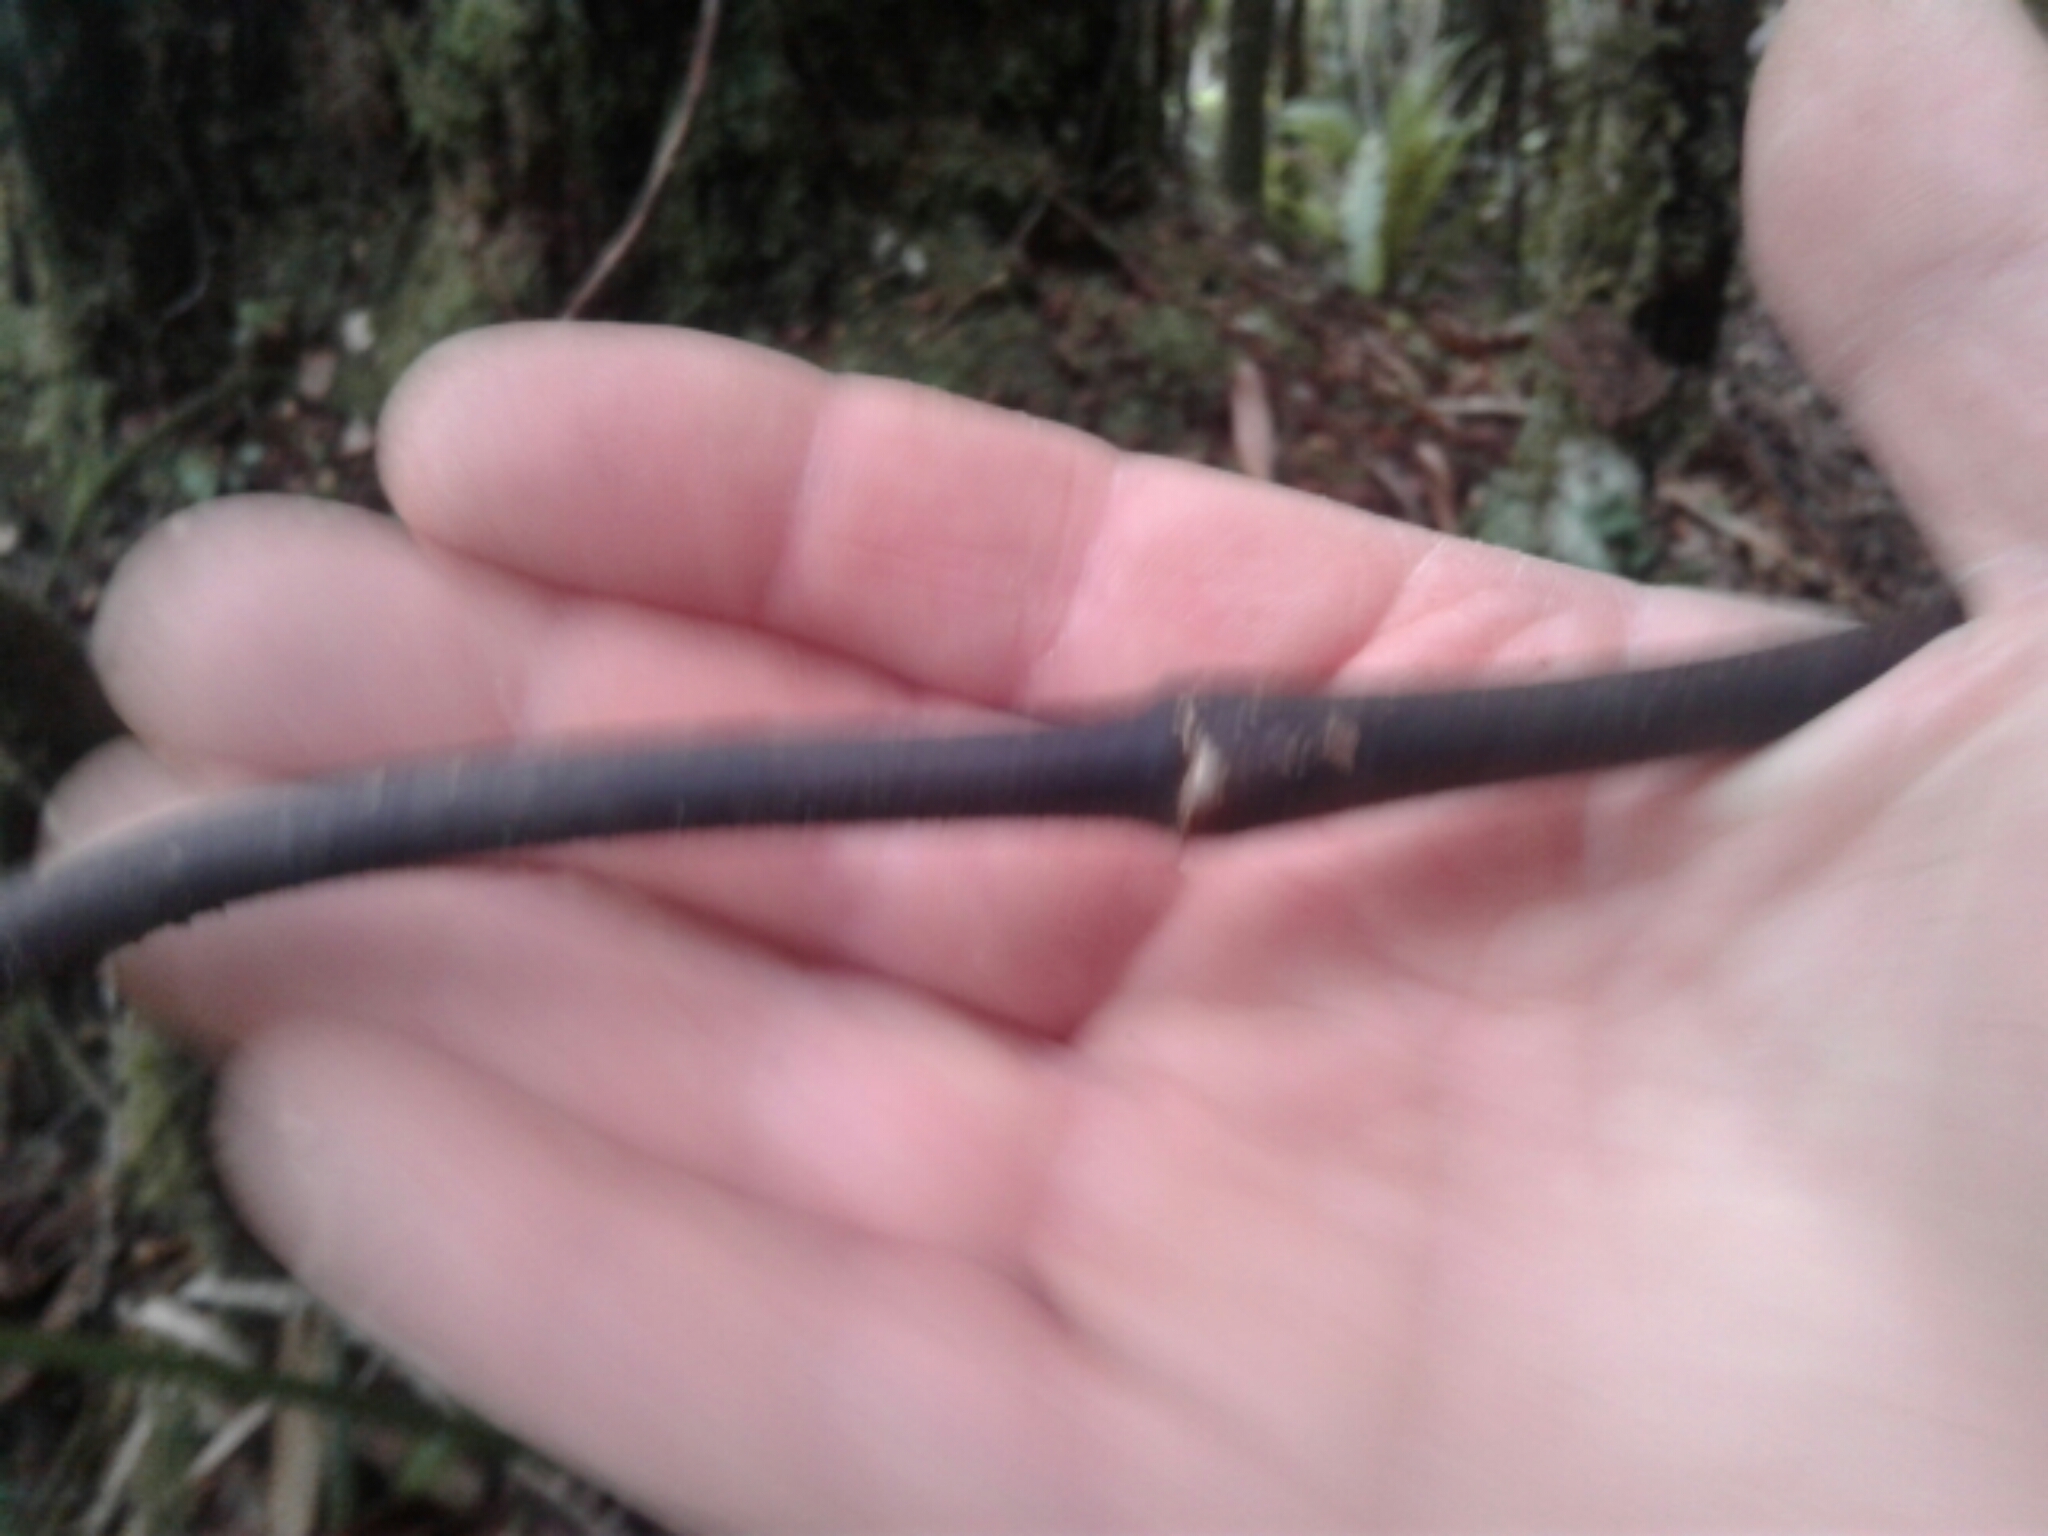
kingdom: Plantae
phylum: Tracheophyta
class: Liliopsida
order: Liliales
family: Ripogonaceae
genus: Ripogonum
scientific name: Ripogonum scandens
